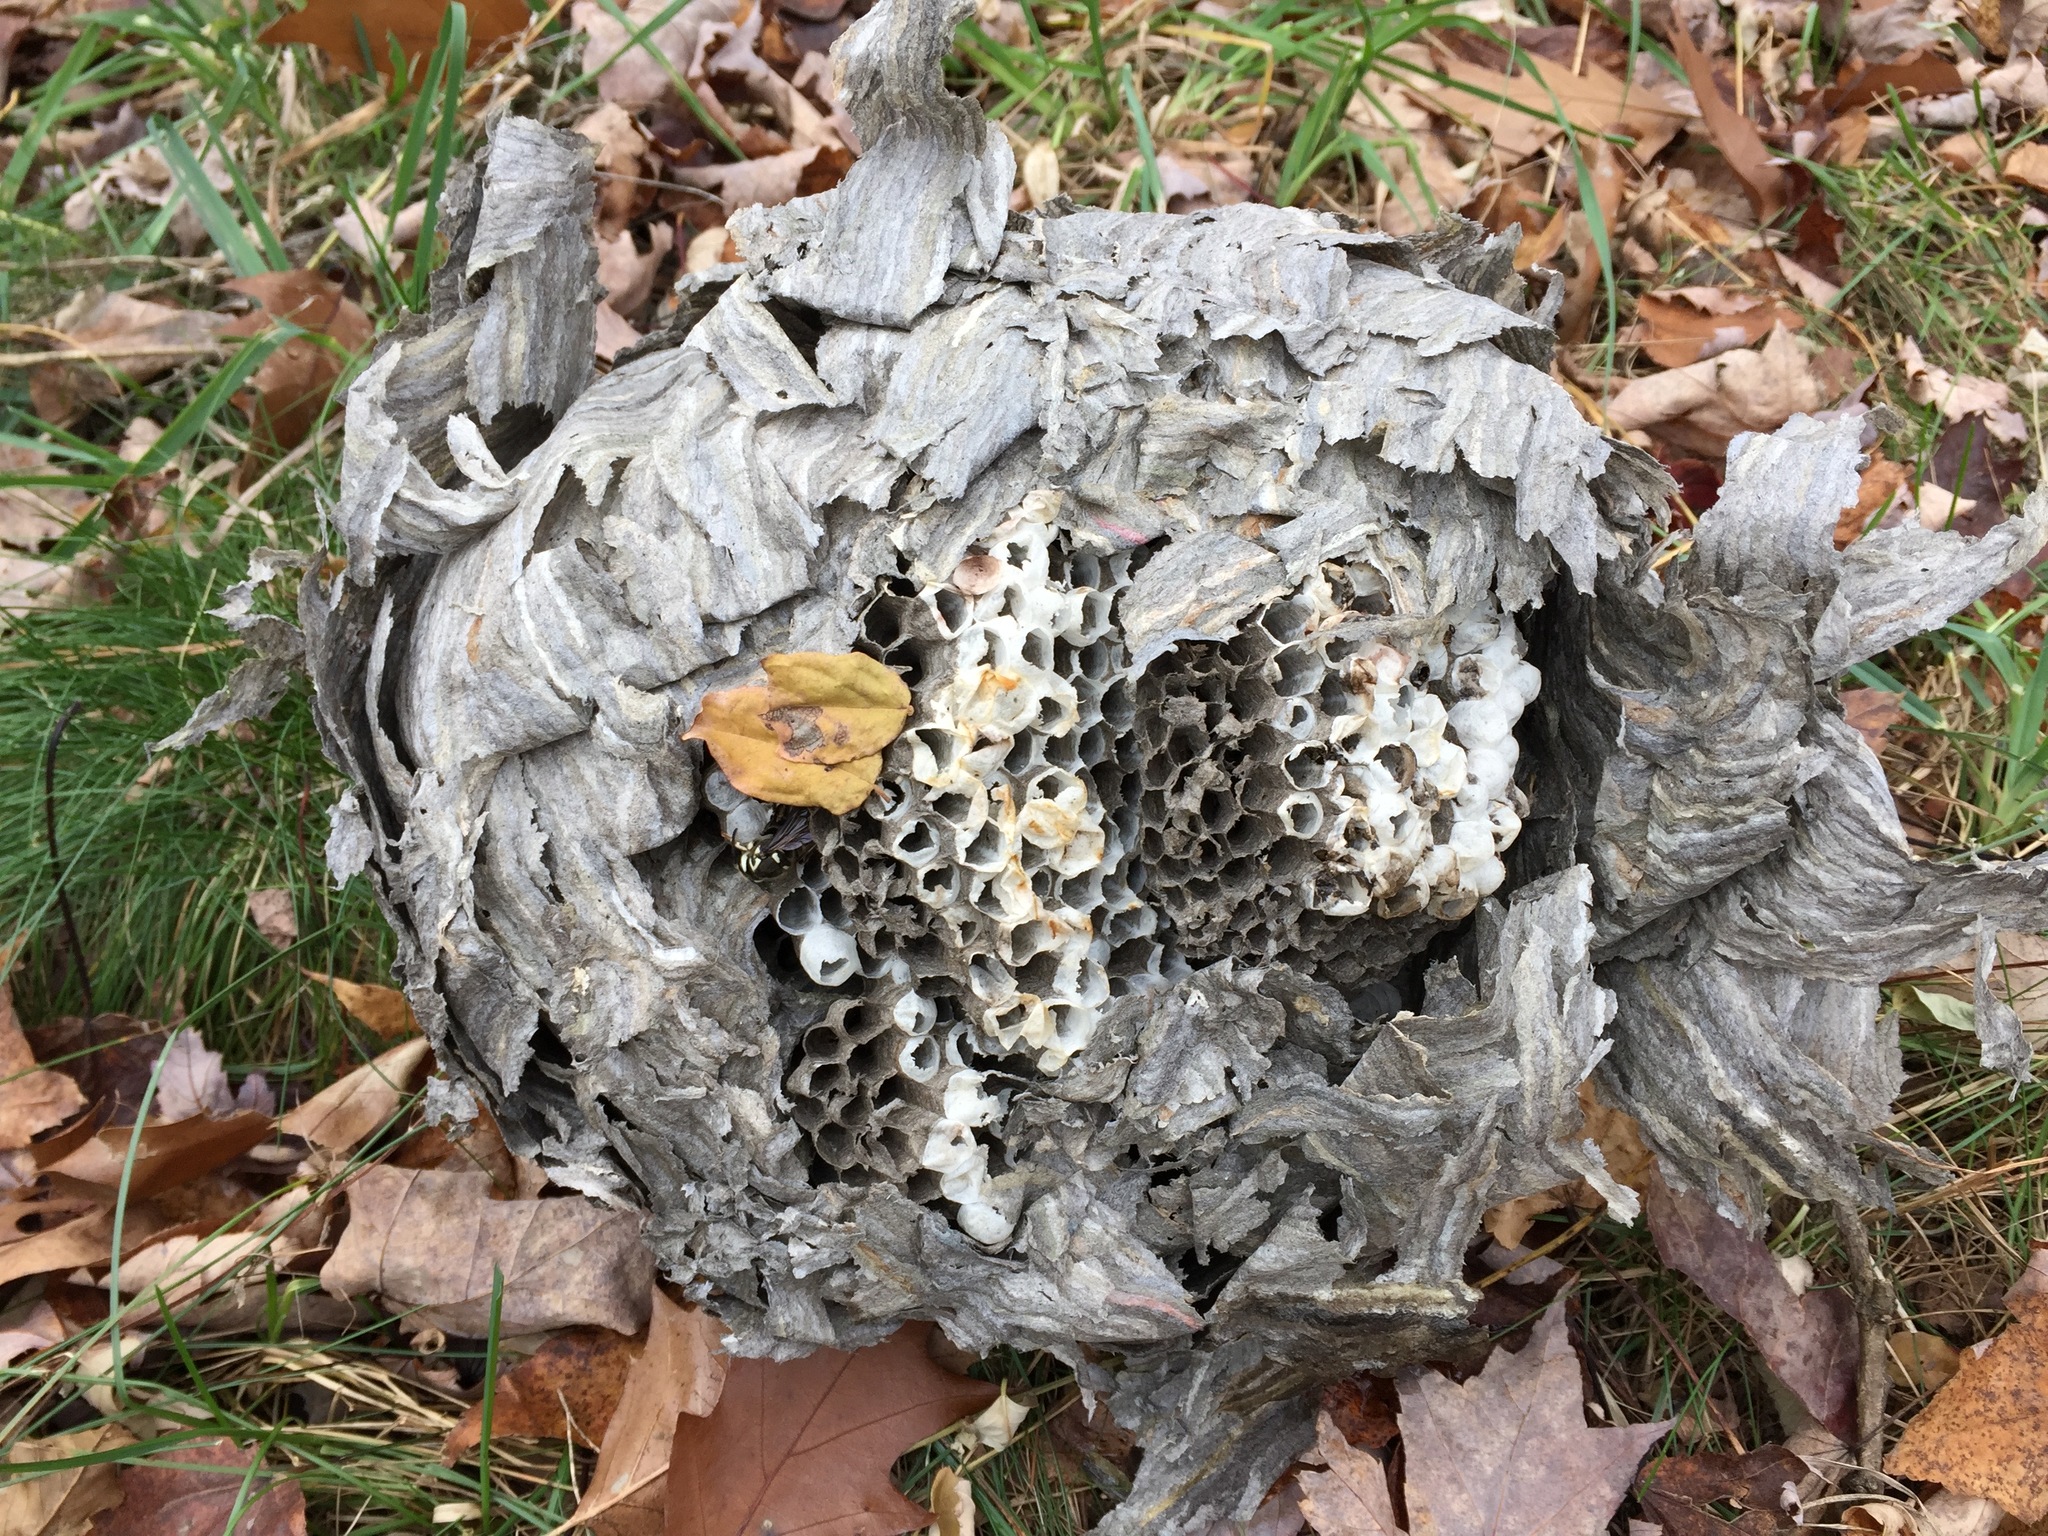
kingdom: Animalia
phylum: Arthropoda
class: Insecta
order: Hymenoptera
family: Vespidae
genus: Dolichovespula
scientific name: Dolichovespula maculata
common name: Bald-faced hornet
